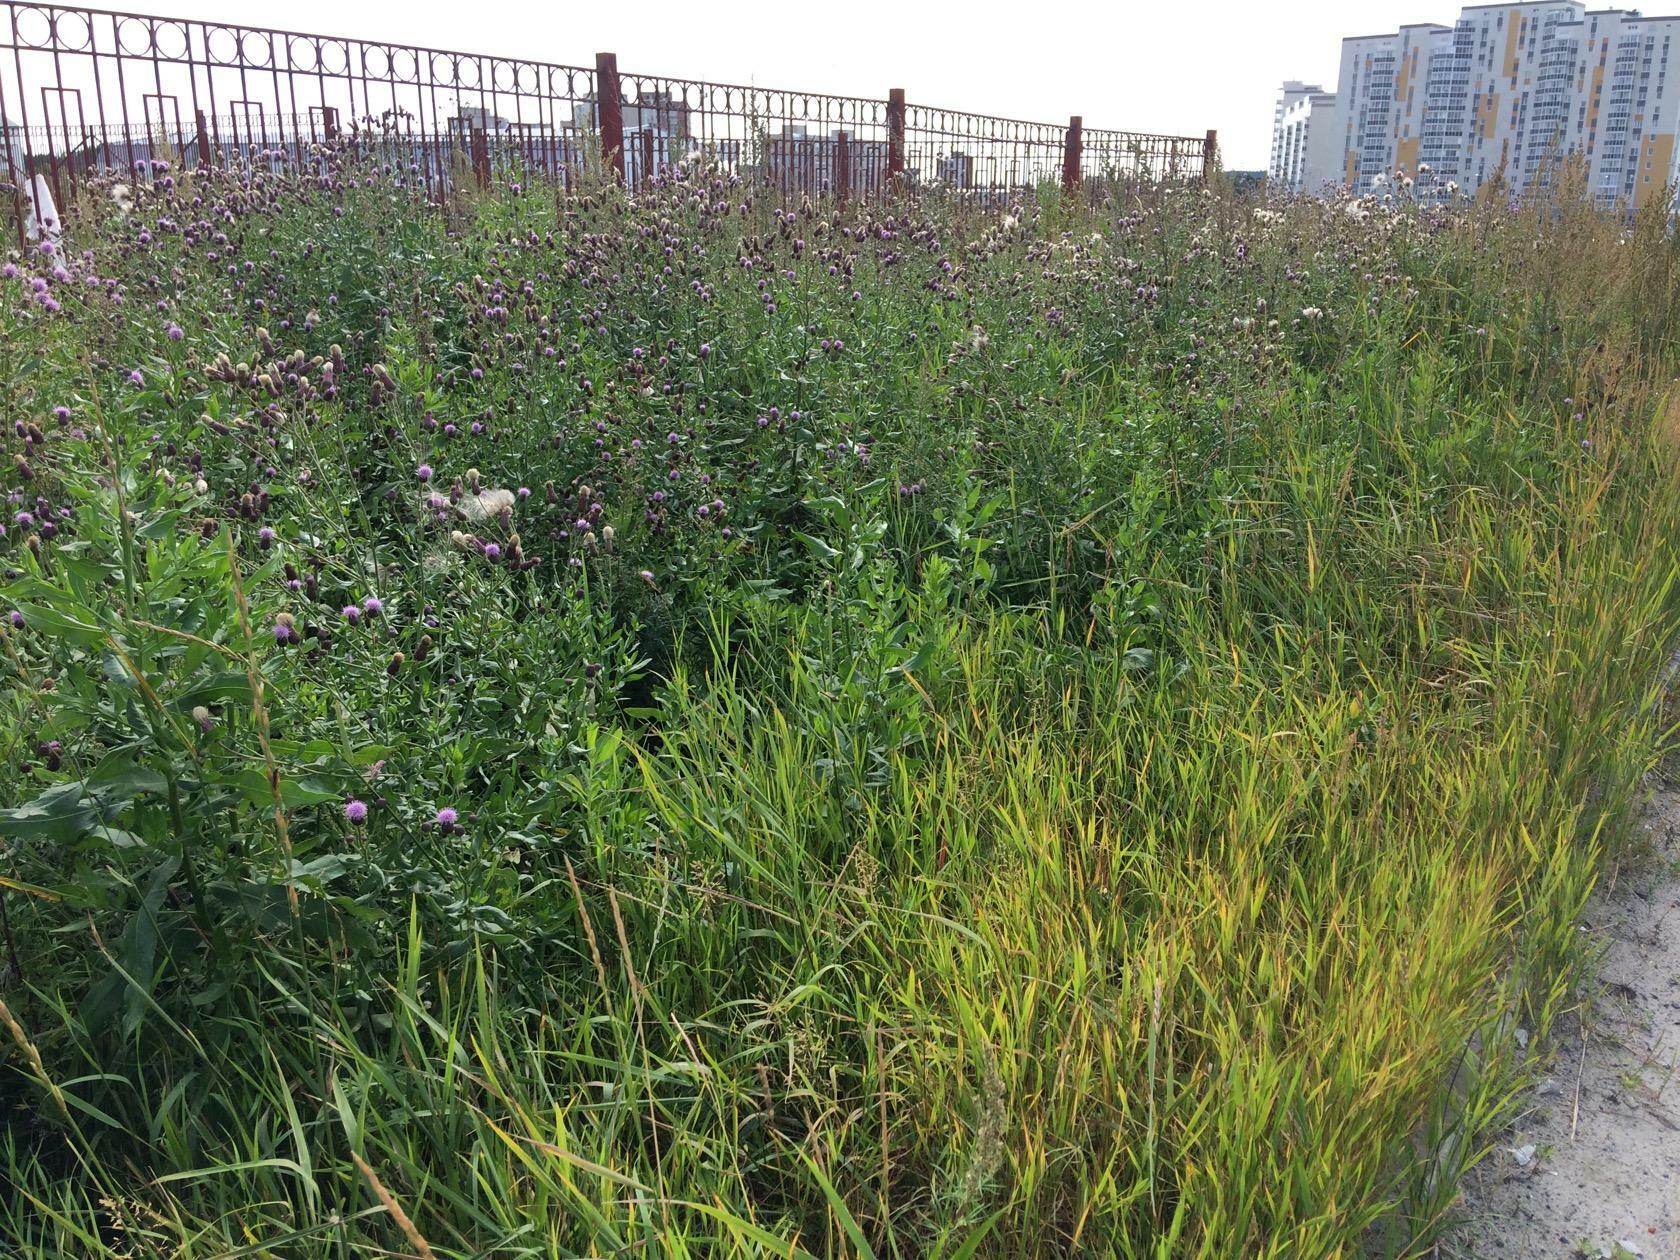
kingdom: Plantae
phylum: Tracheophyta
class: Magnoliopsida
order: Asterales
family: Asteraceae
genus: Cirsium
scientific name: Cirsium arvense
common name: Creeping thistle
